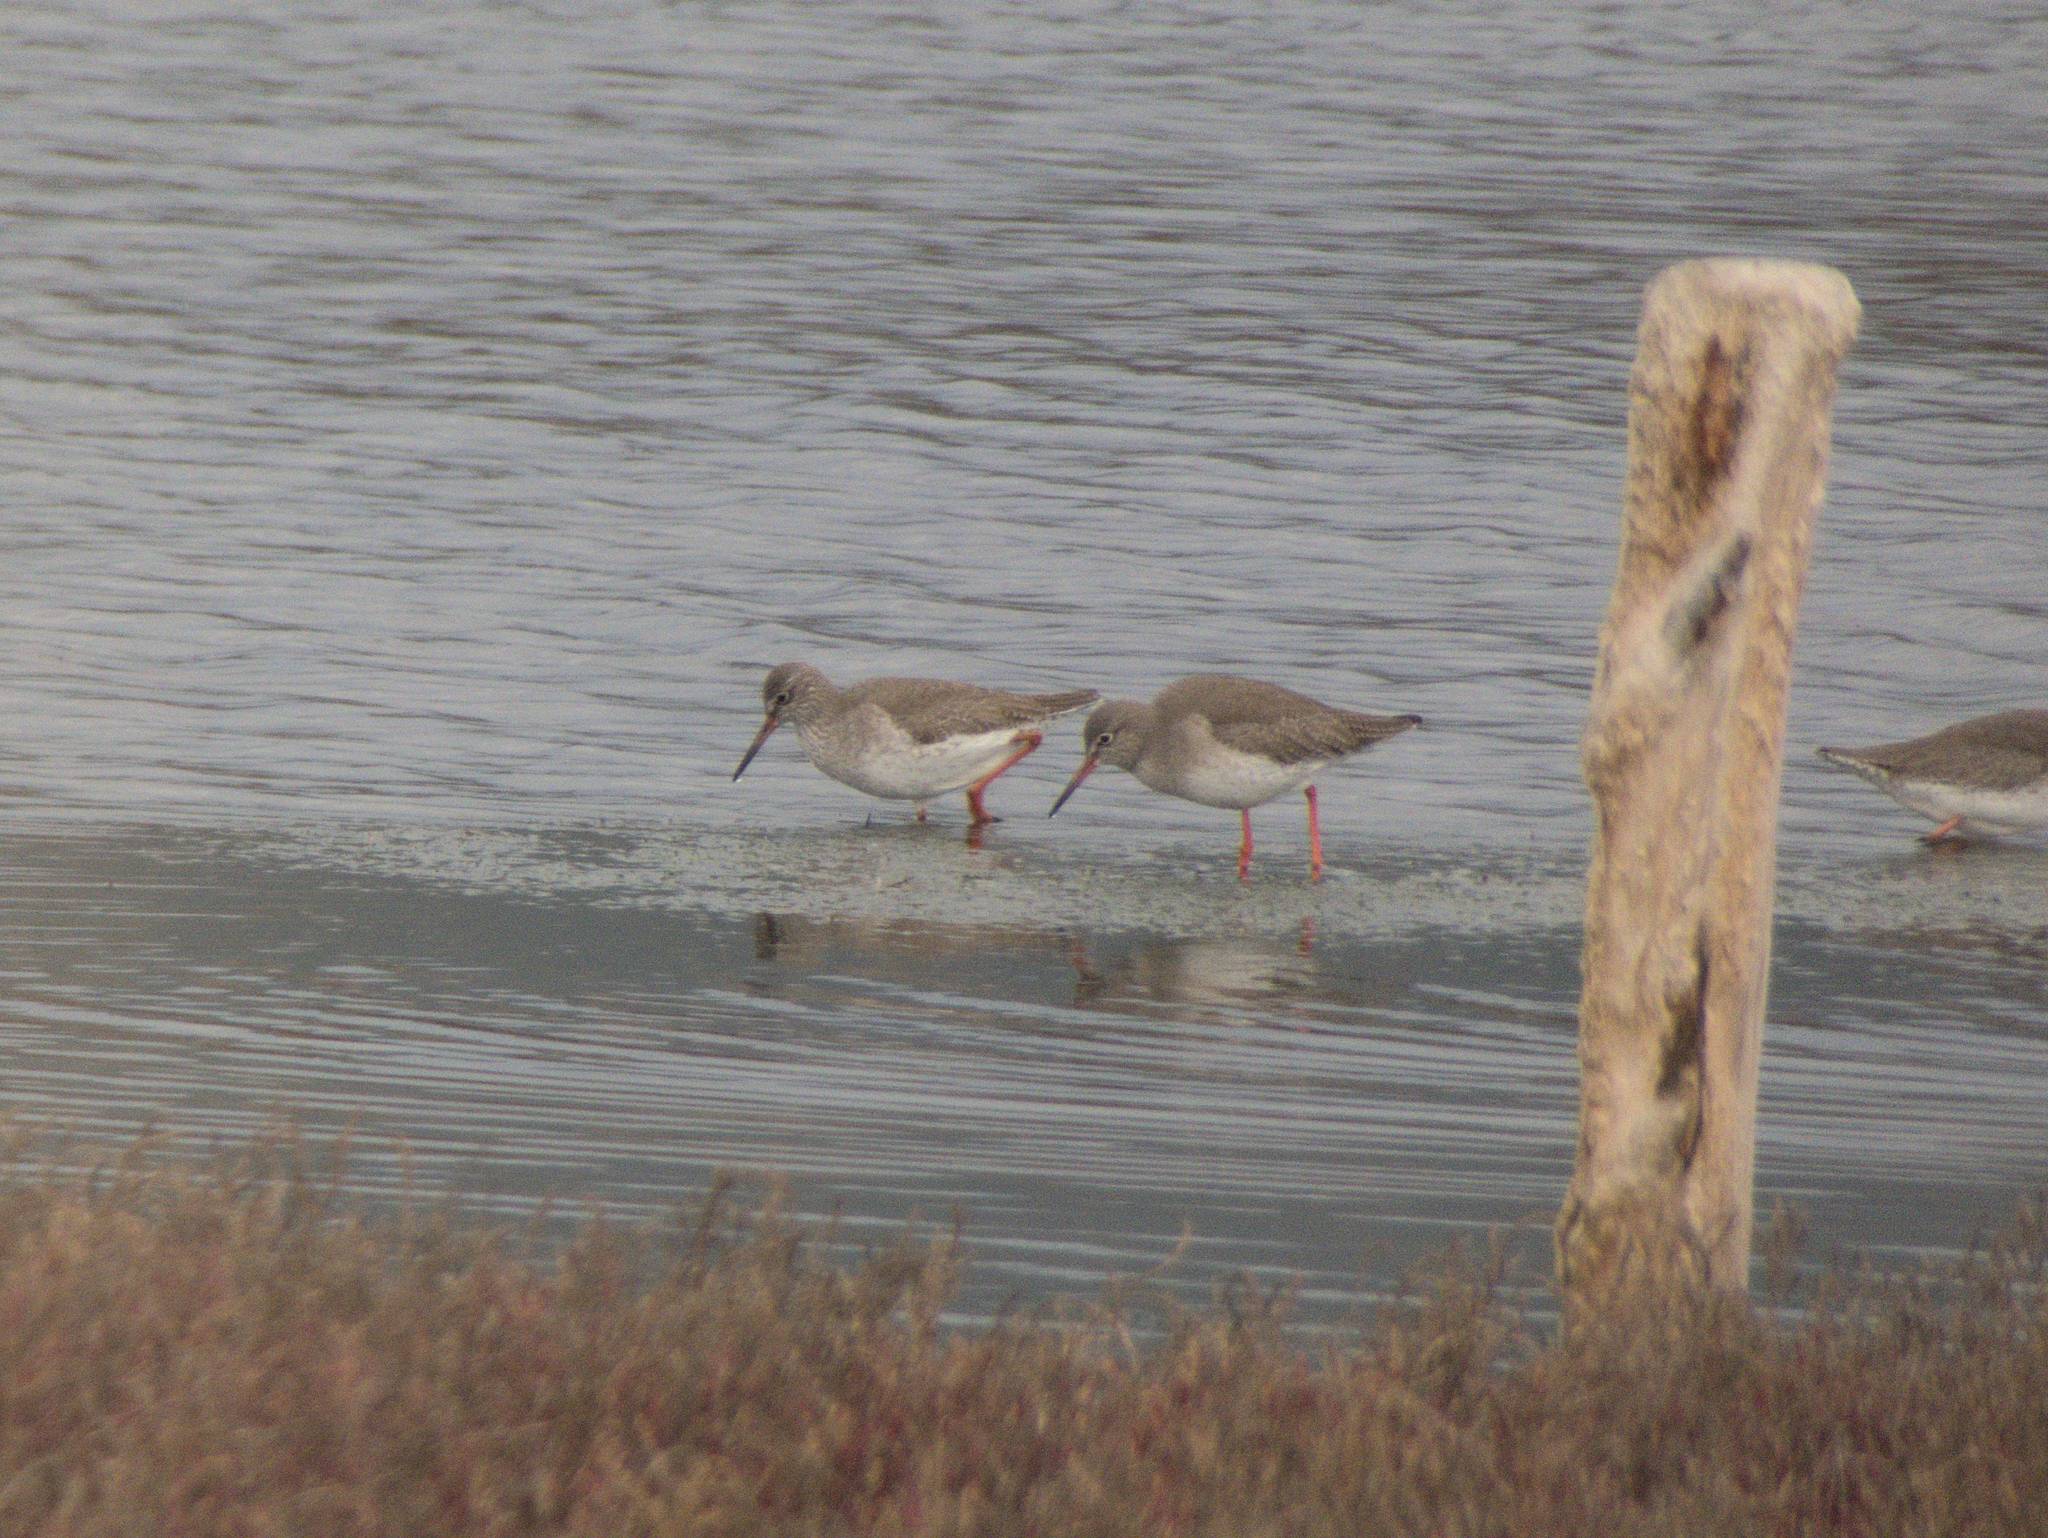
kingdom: Animalia
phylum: Chordata
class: Aves
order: Charadriiformes
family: Scolopacidae
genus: Tringa
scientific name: Tringa totanus
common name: Common redshank
